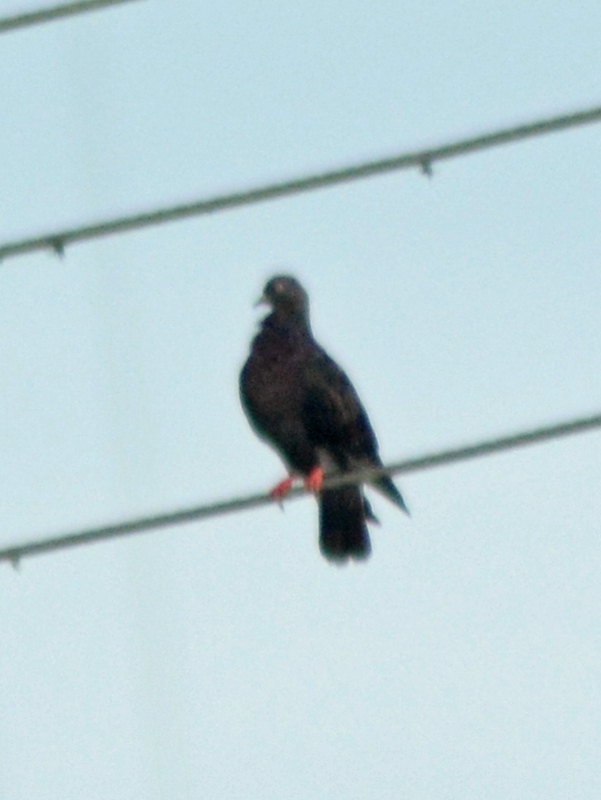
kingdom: Animalia
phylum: Chordata
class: Aves
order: Columbiformes
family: Columbidae
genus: Columba
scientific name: Columba livia
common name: Rock pigeon
